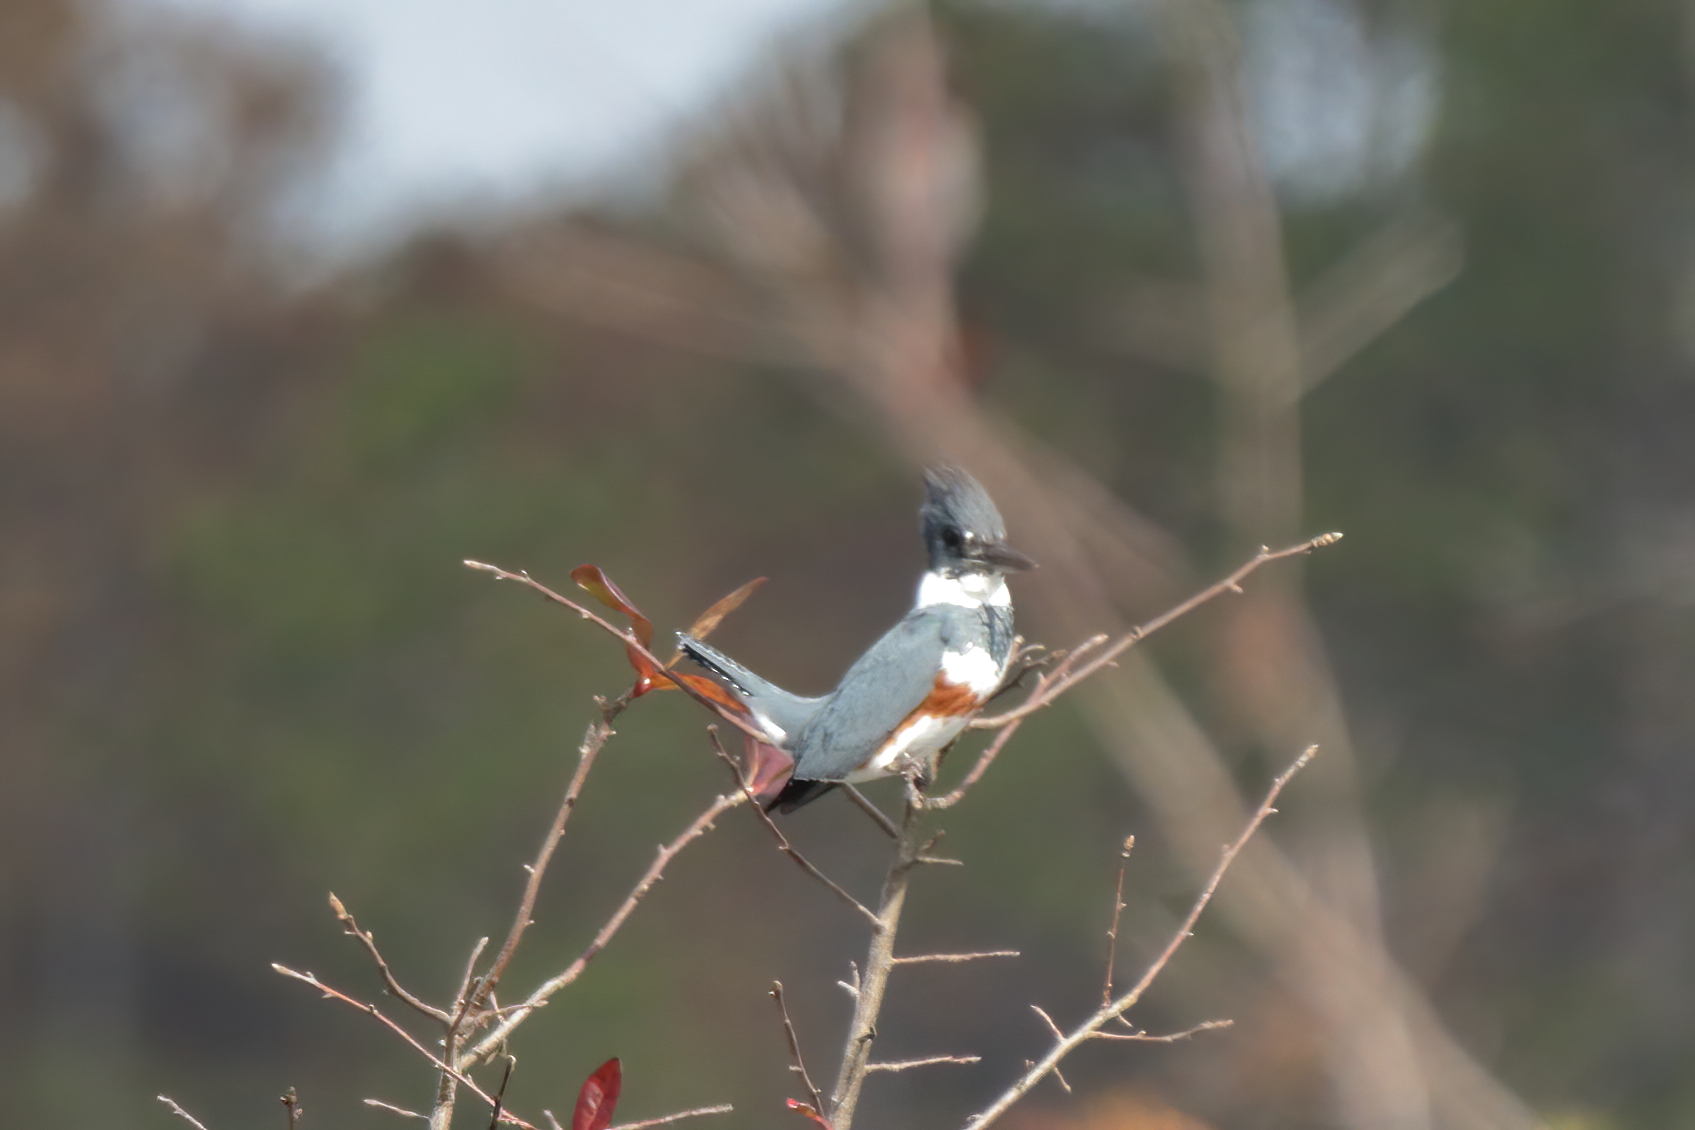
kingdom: Animalia
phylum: Chordata
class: Aves
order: Coraciiformes
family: Alcedinidae
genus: Megaceryle
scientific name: Megaceryle alcyon
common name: Belted kingfisher
